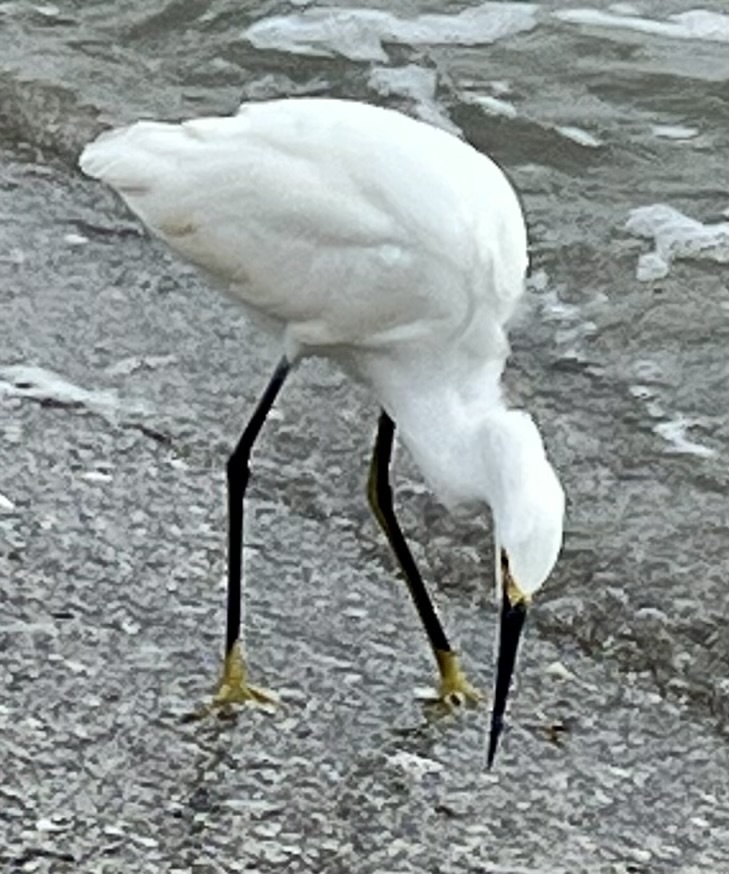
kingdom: Animalia
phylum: Chordata
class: Aves
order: Pelecaniformes
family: Ardeidae
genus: Egretta
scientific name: Egretta thula
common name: Snowy egret
